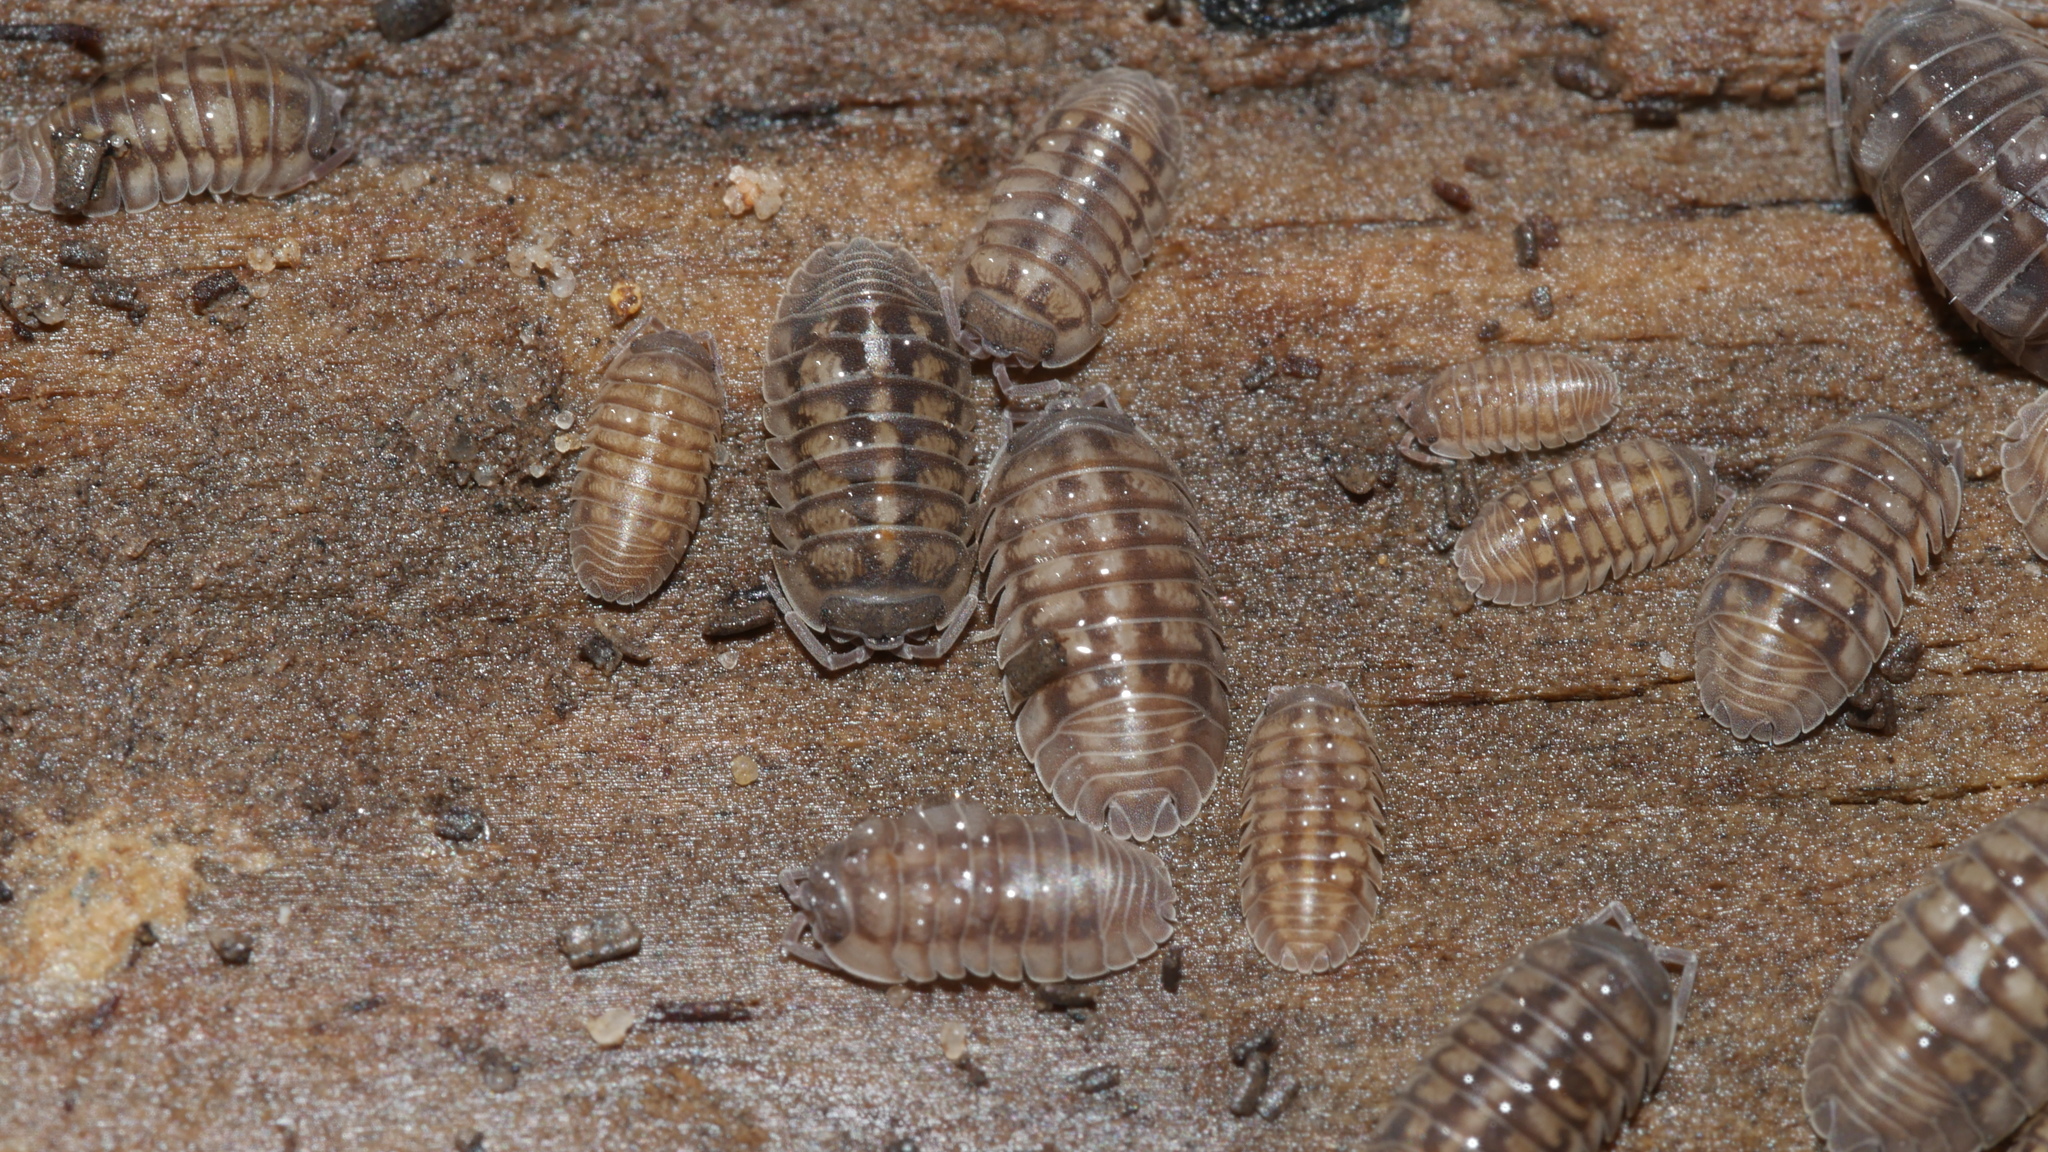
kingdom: Animalia
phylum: Arthropoda
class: Malacostraca
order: Isopoda
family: Armadillidiidae
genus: Armadillidium
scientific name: Armadillidium nasatum
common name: Isopod
